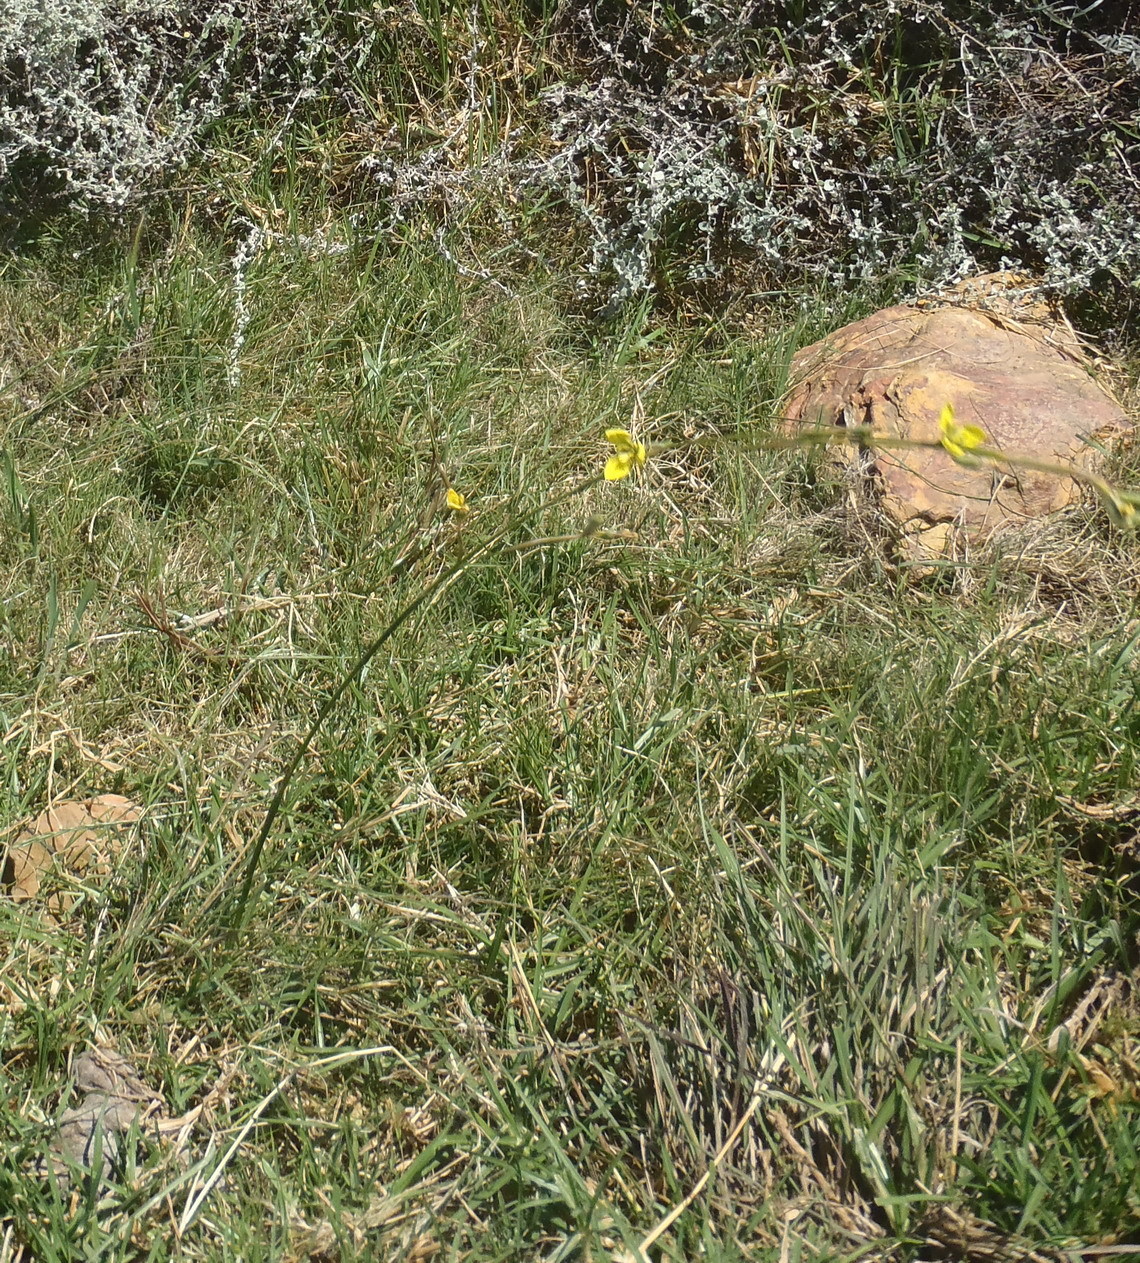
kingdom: Plantae
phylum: Tracheophyta
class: Liliopsida
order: Asparagales
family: Iridaceae
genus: Moraea
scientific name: Moraea bellendenii
